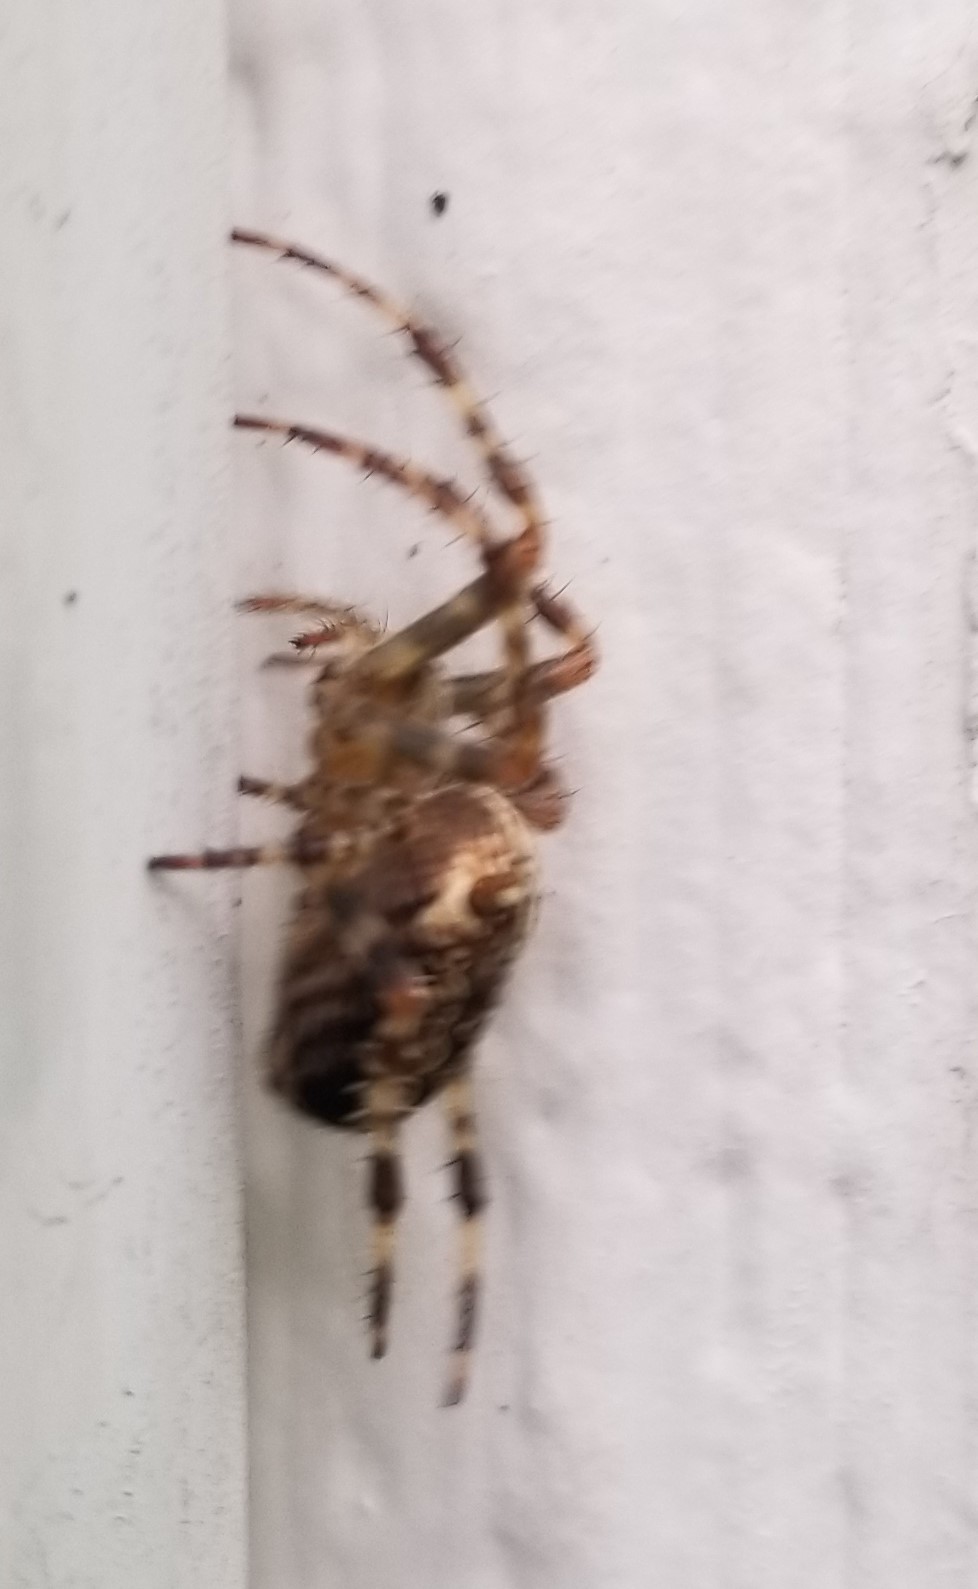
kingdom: Animalia
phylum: Arthropoda
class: Arachnida
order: Araneae
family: Araneidae
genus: Araneus
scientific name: Araneus diadematus
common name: Cross orbweaver
